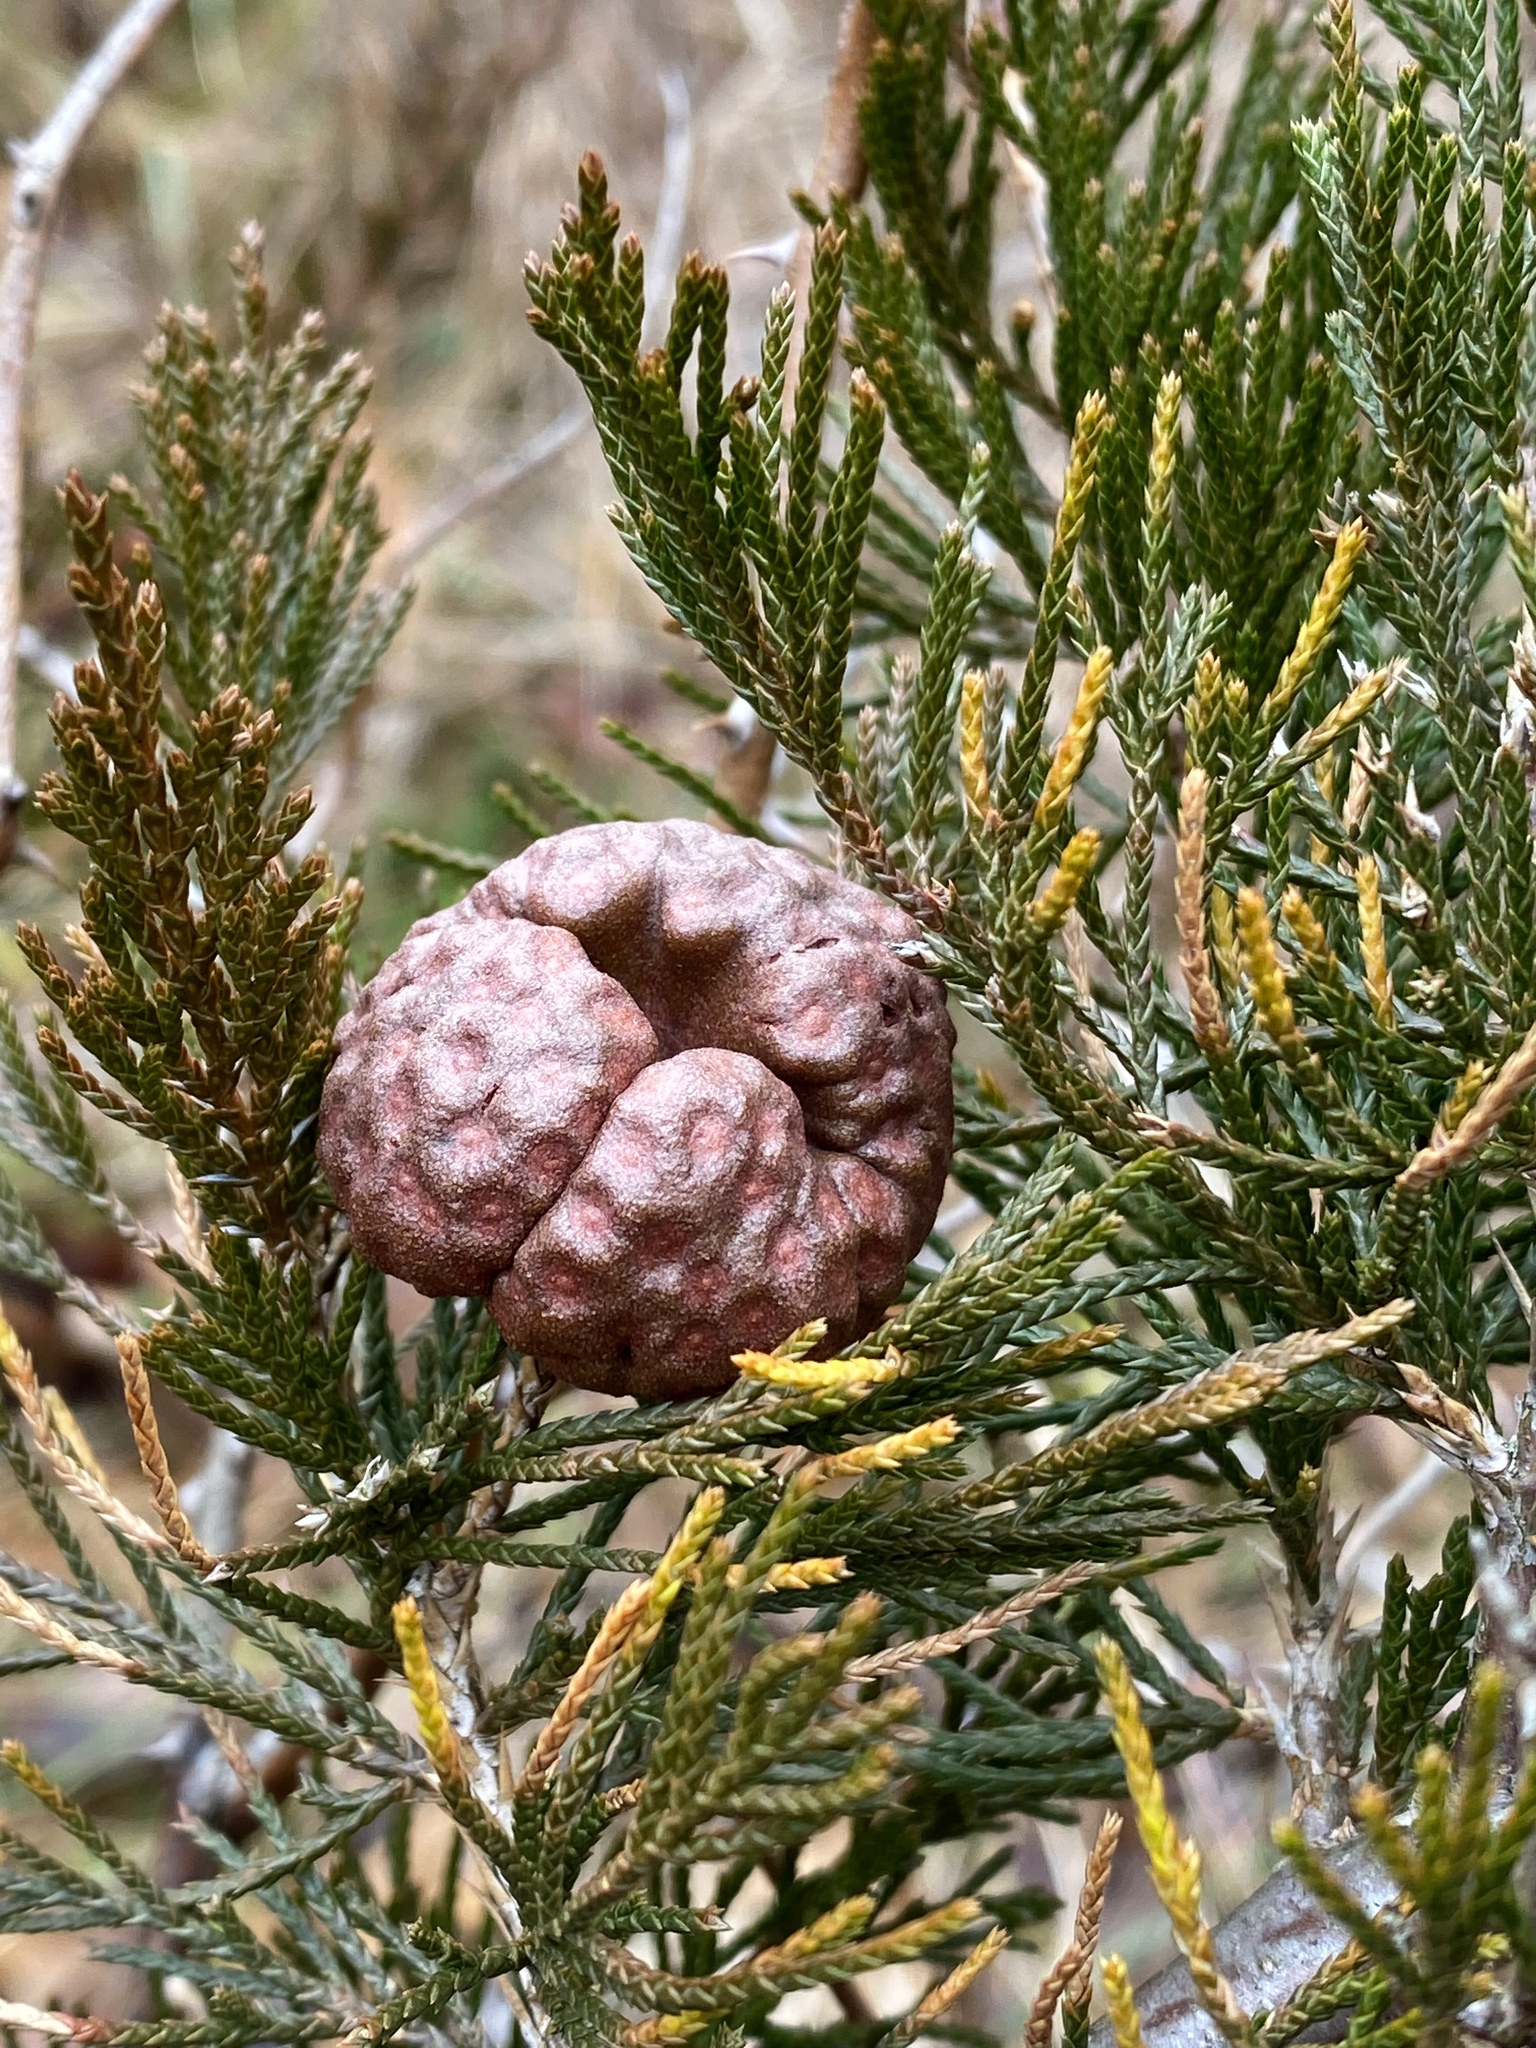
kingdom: Fungi
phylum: Basidiomycota
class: Pucciniomycetes
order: Pucciniales
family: Gymnosporangiaceae
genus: Gymnosporangium
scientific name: Gymnosporangium juniperi-virginianae
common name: Juniper-apple rust
